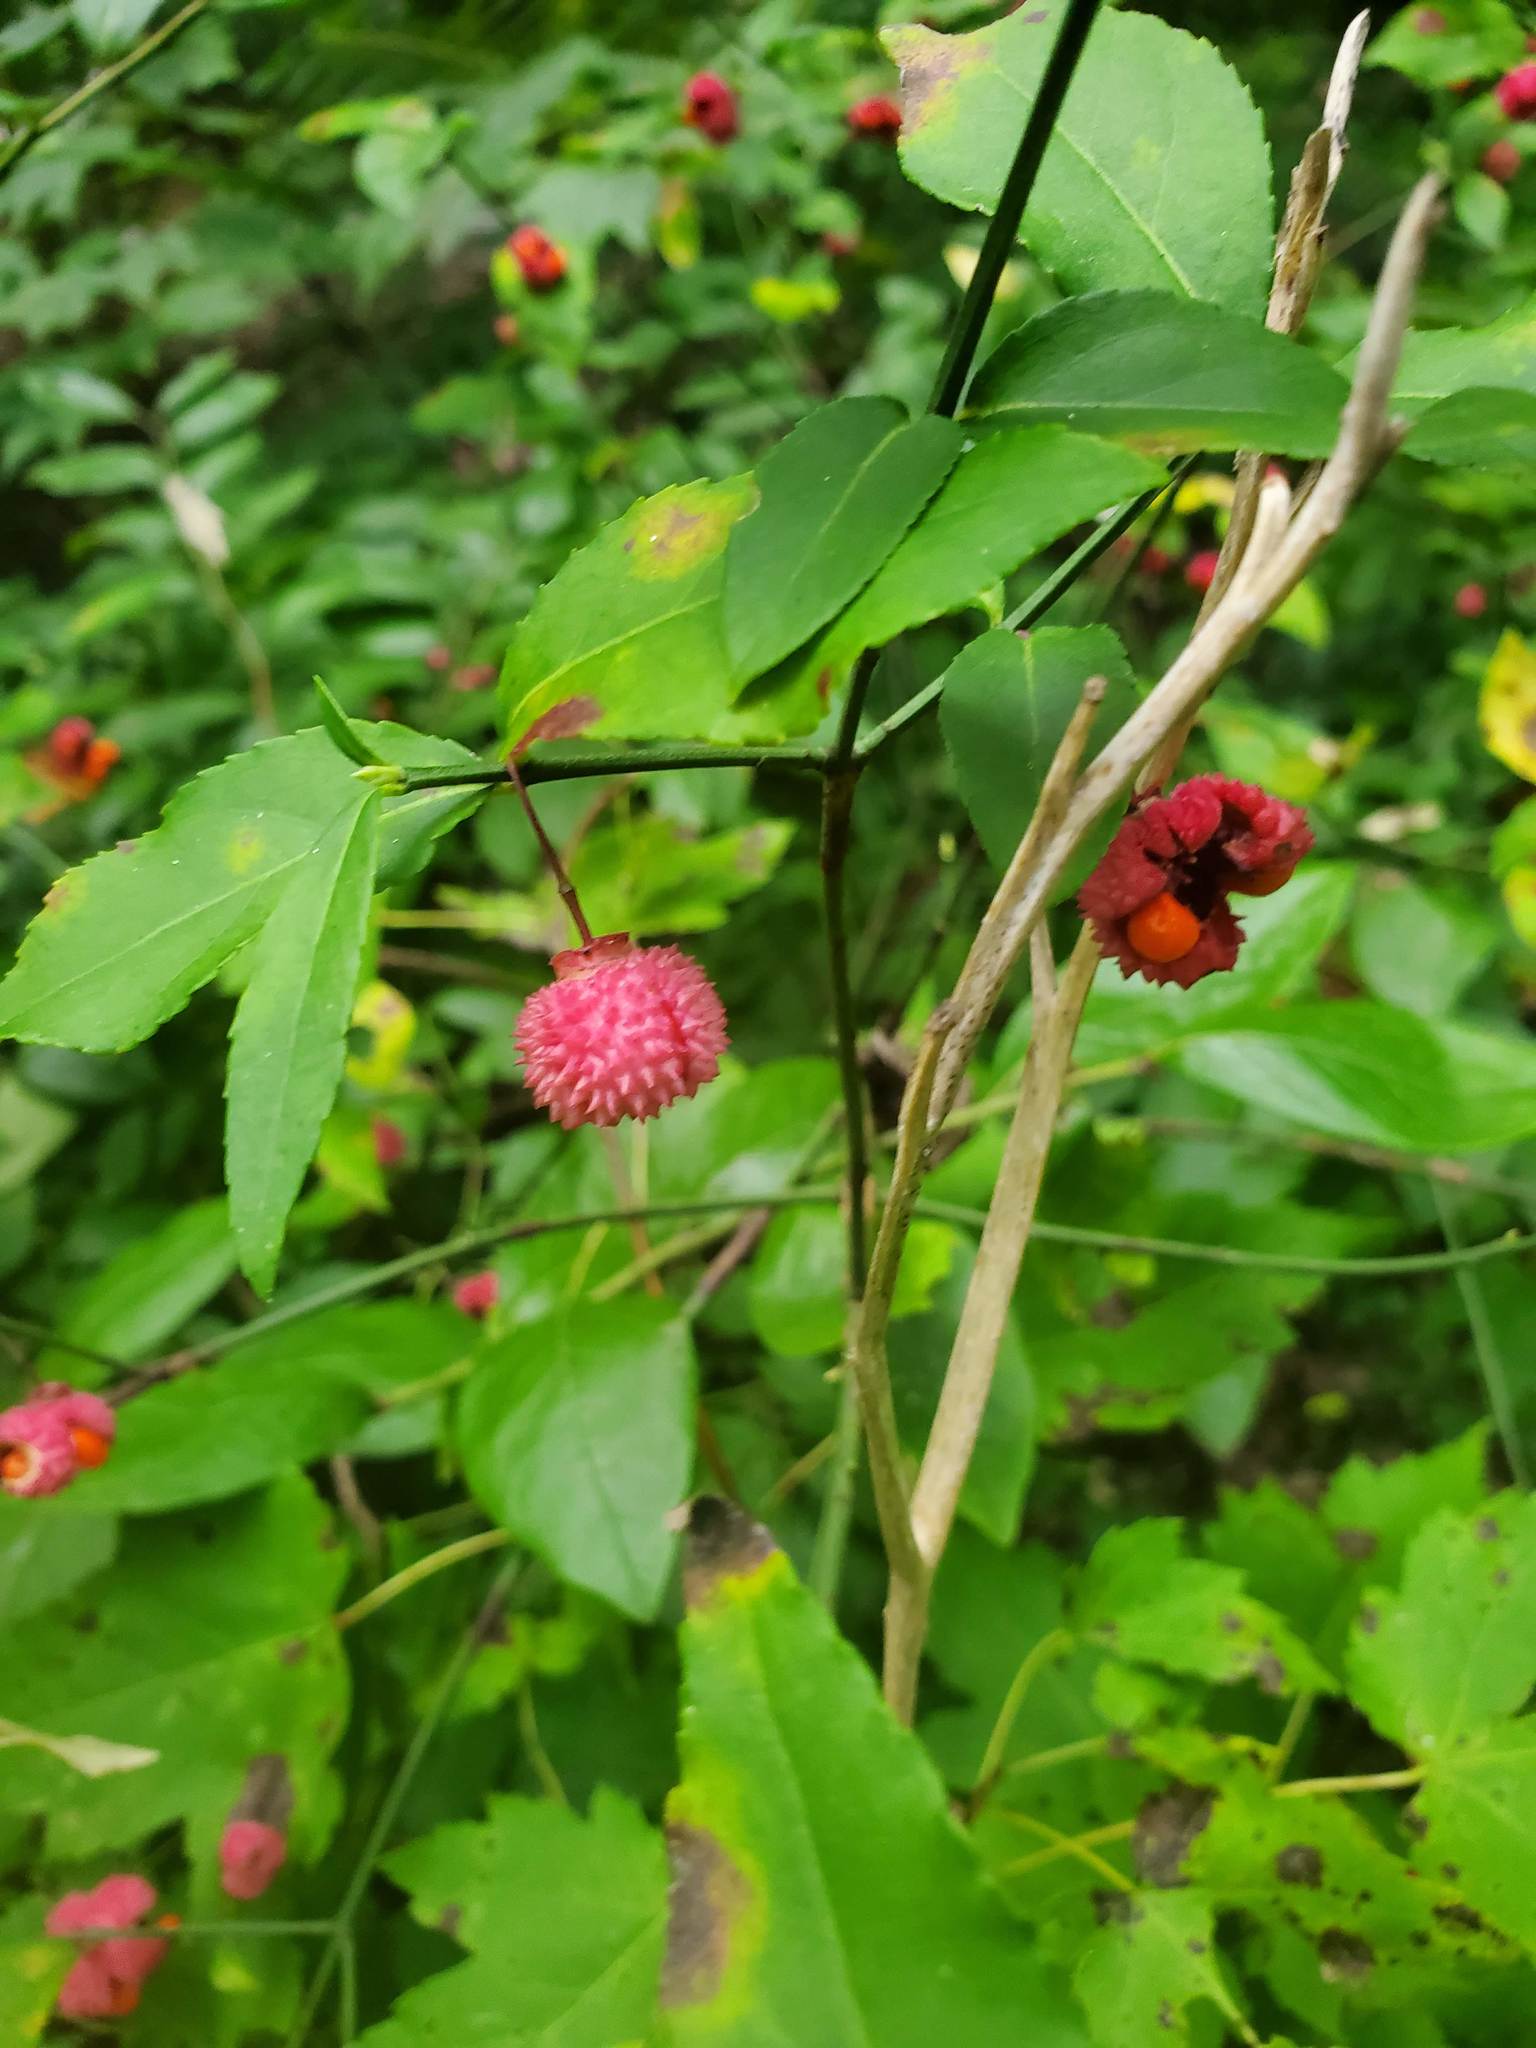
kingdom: Plantae
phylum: Tracheophyta
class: Magnoliopsida
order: Celastrales
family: Celastraceae
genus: Euonymus
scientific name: Euonymus americanus
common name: Bursting-heart
